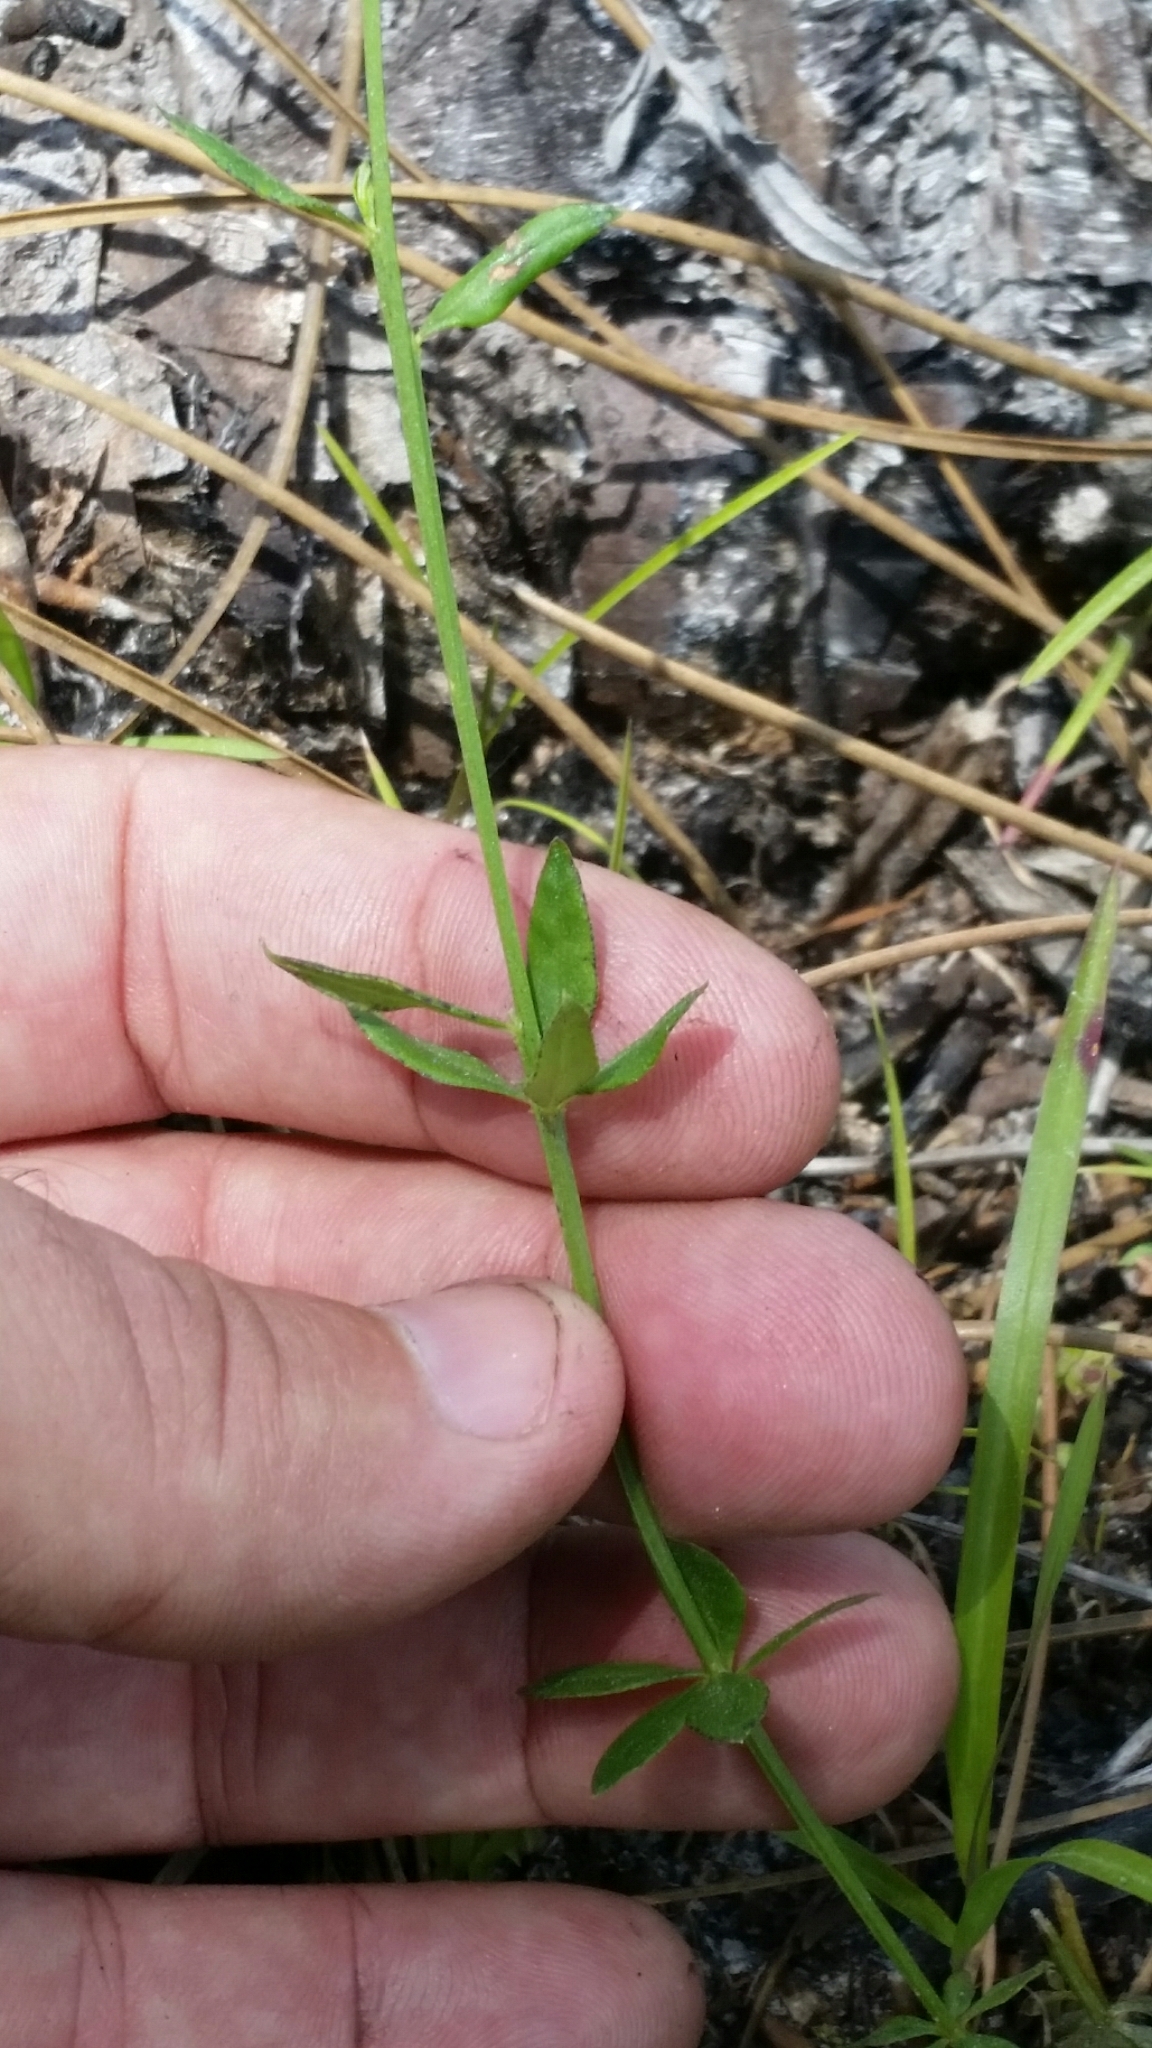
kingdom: Plantae
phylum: Tracheophyta
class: Magnoliopsida
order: Fabales
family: Polygalaceae
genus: Polygala
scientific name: Polygala boykinii
